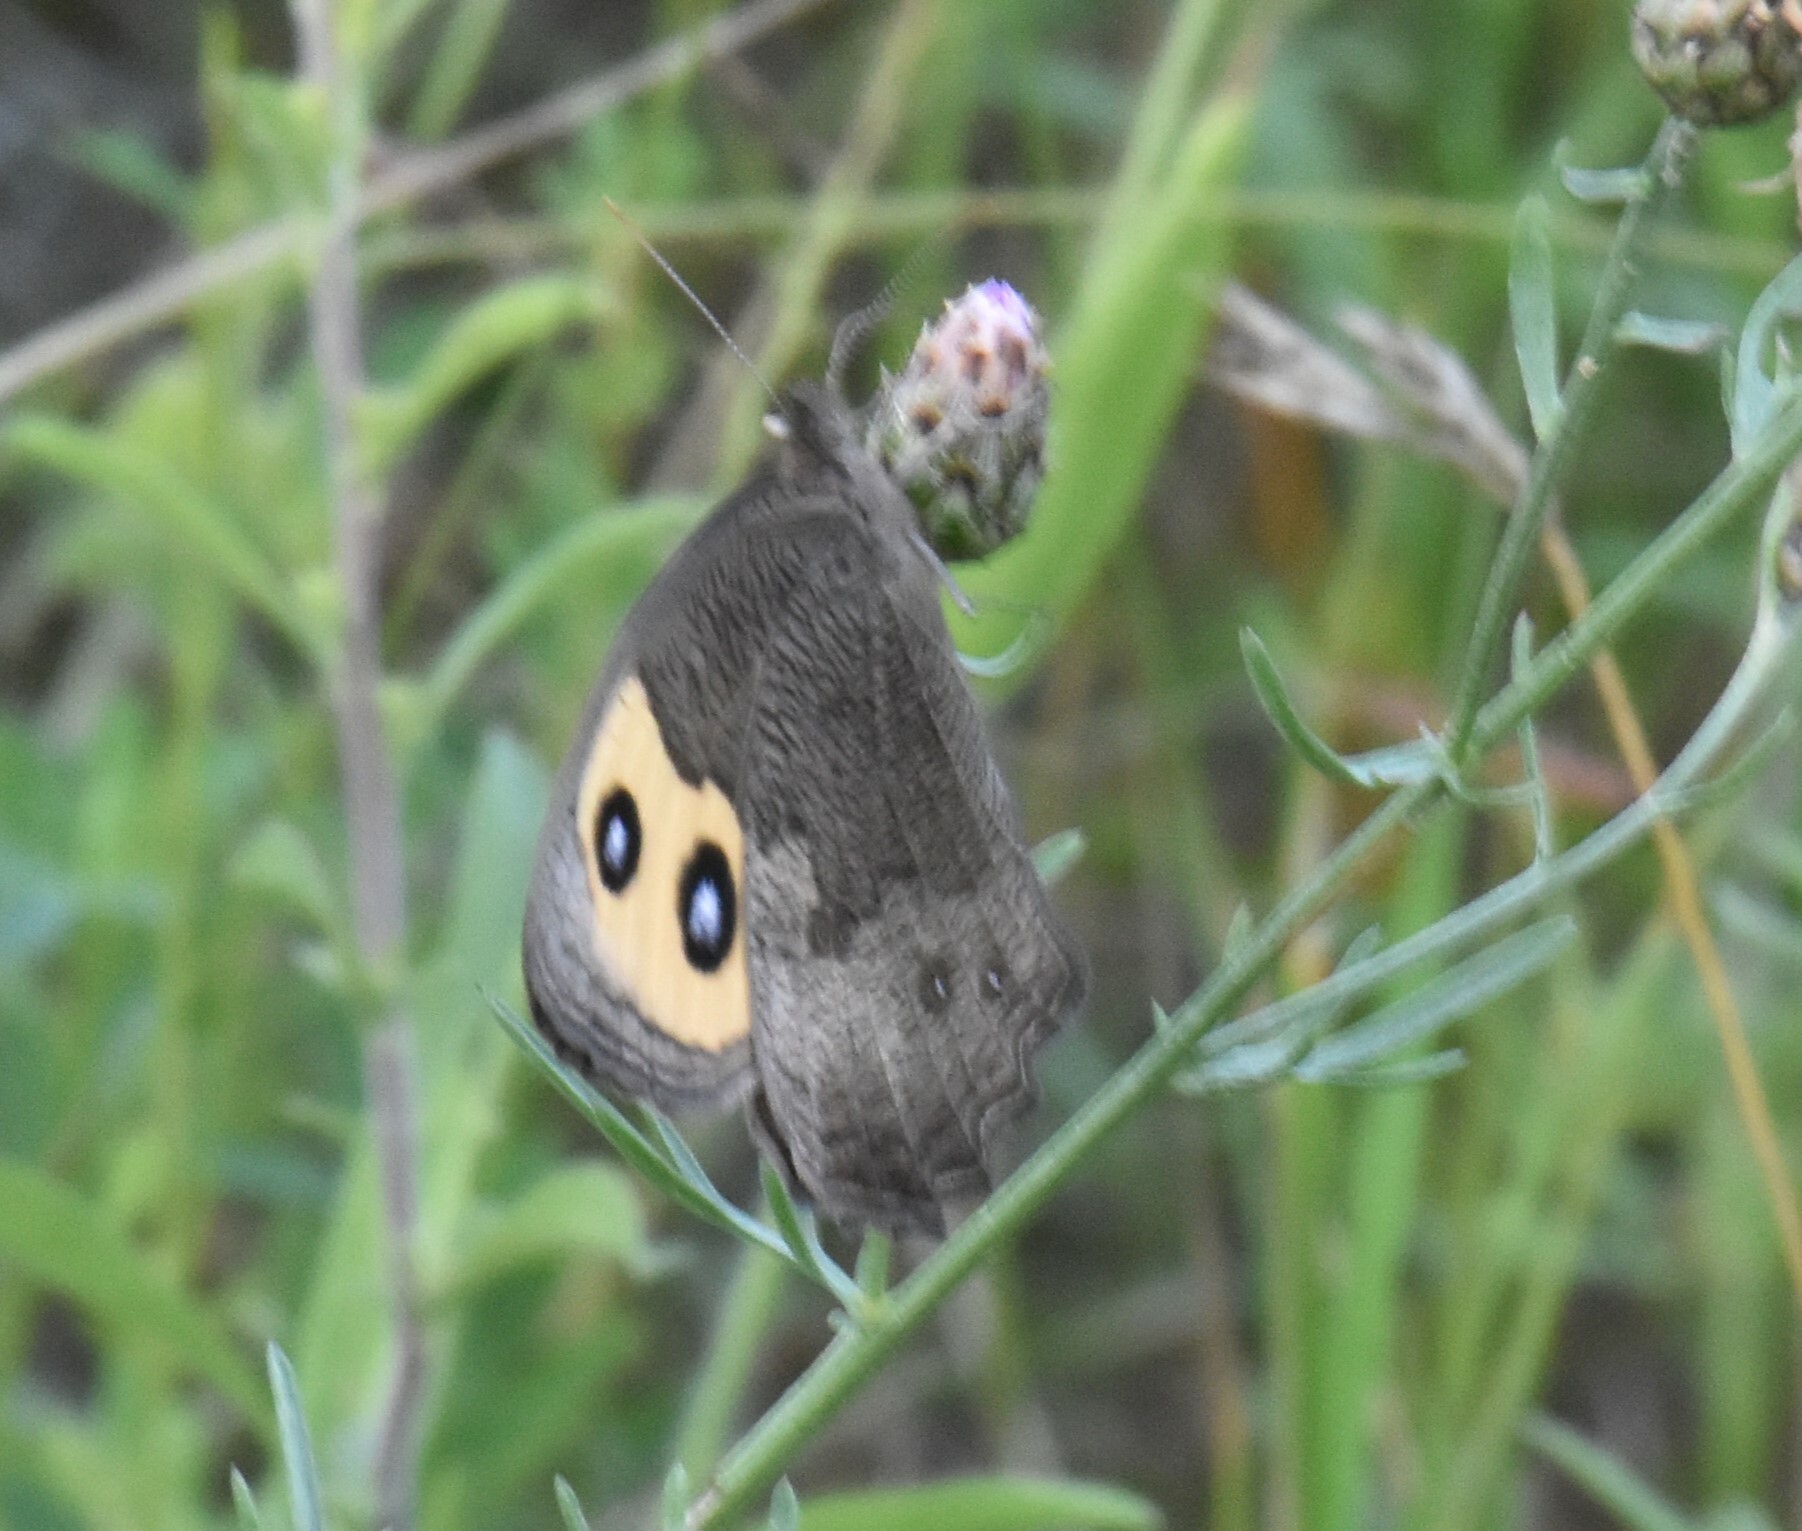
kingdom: Animalia
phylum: Arthropoda
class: Insecta
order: Lepidoptera
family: Nymphalidae
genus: Cercyonis
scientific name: Cercyonis pegala
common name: Common wood-nymph
